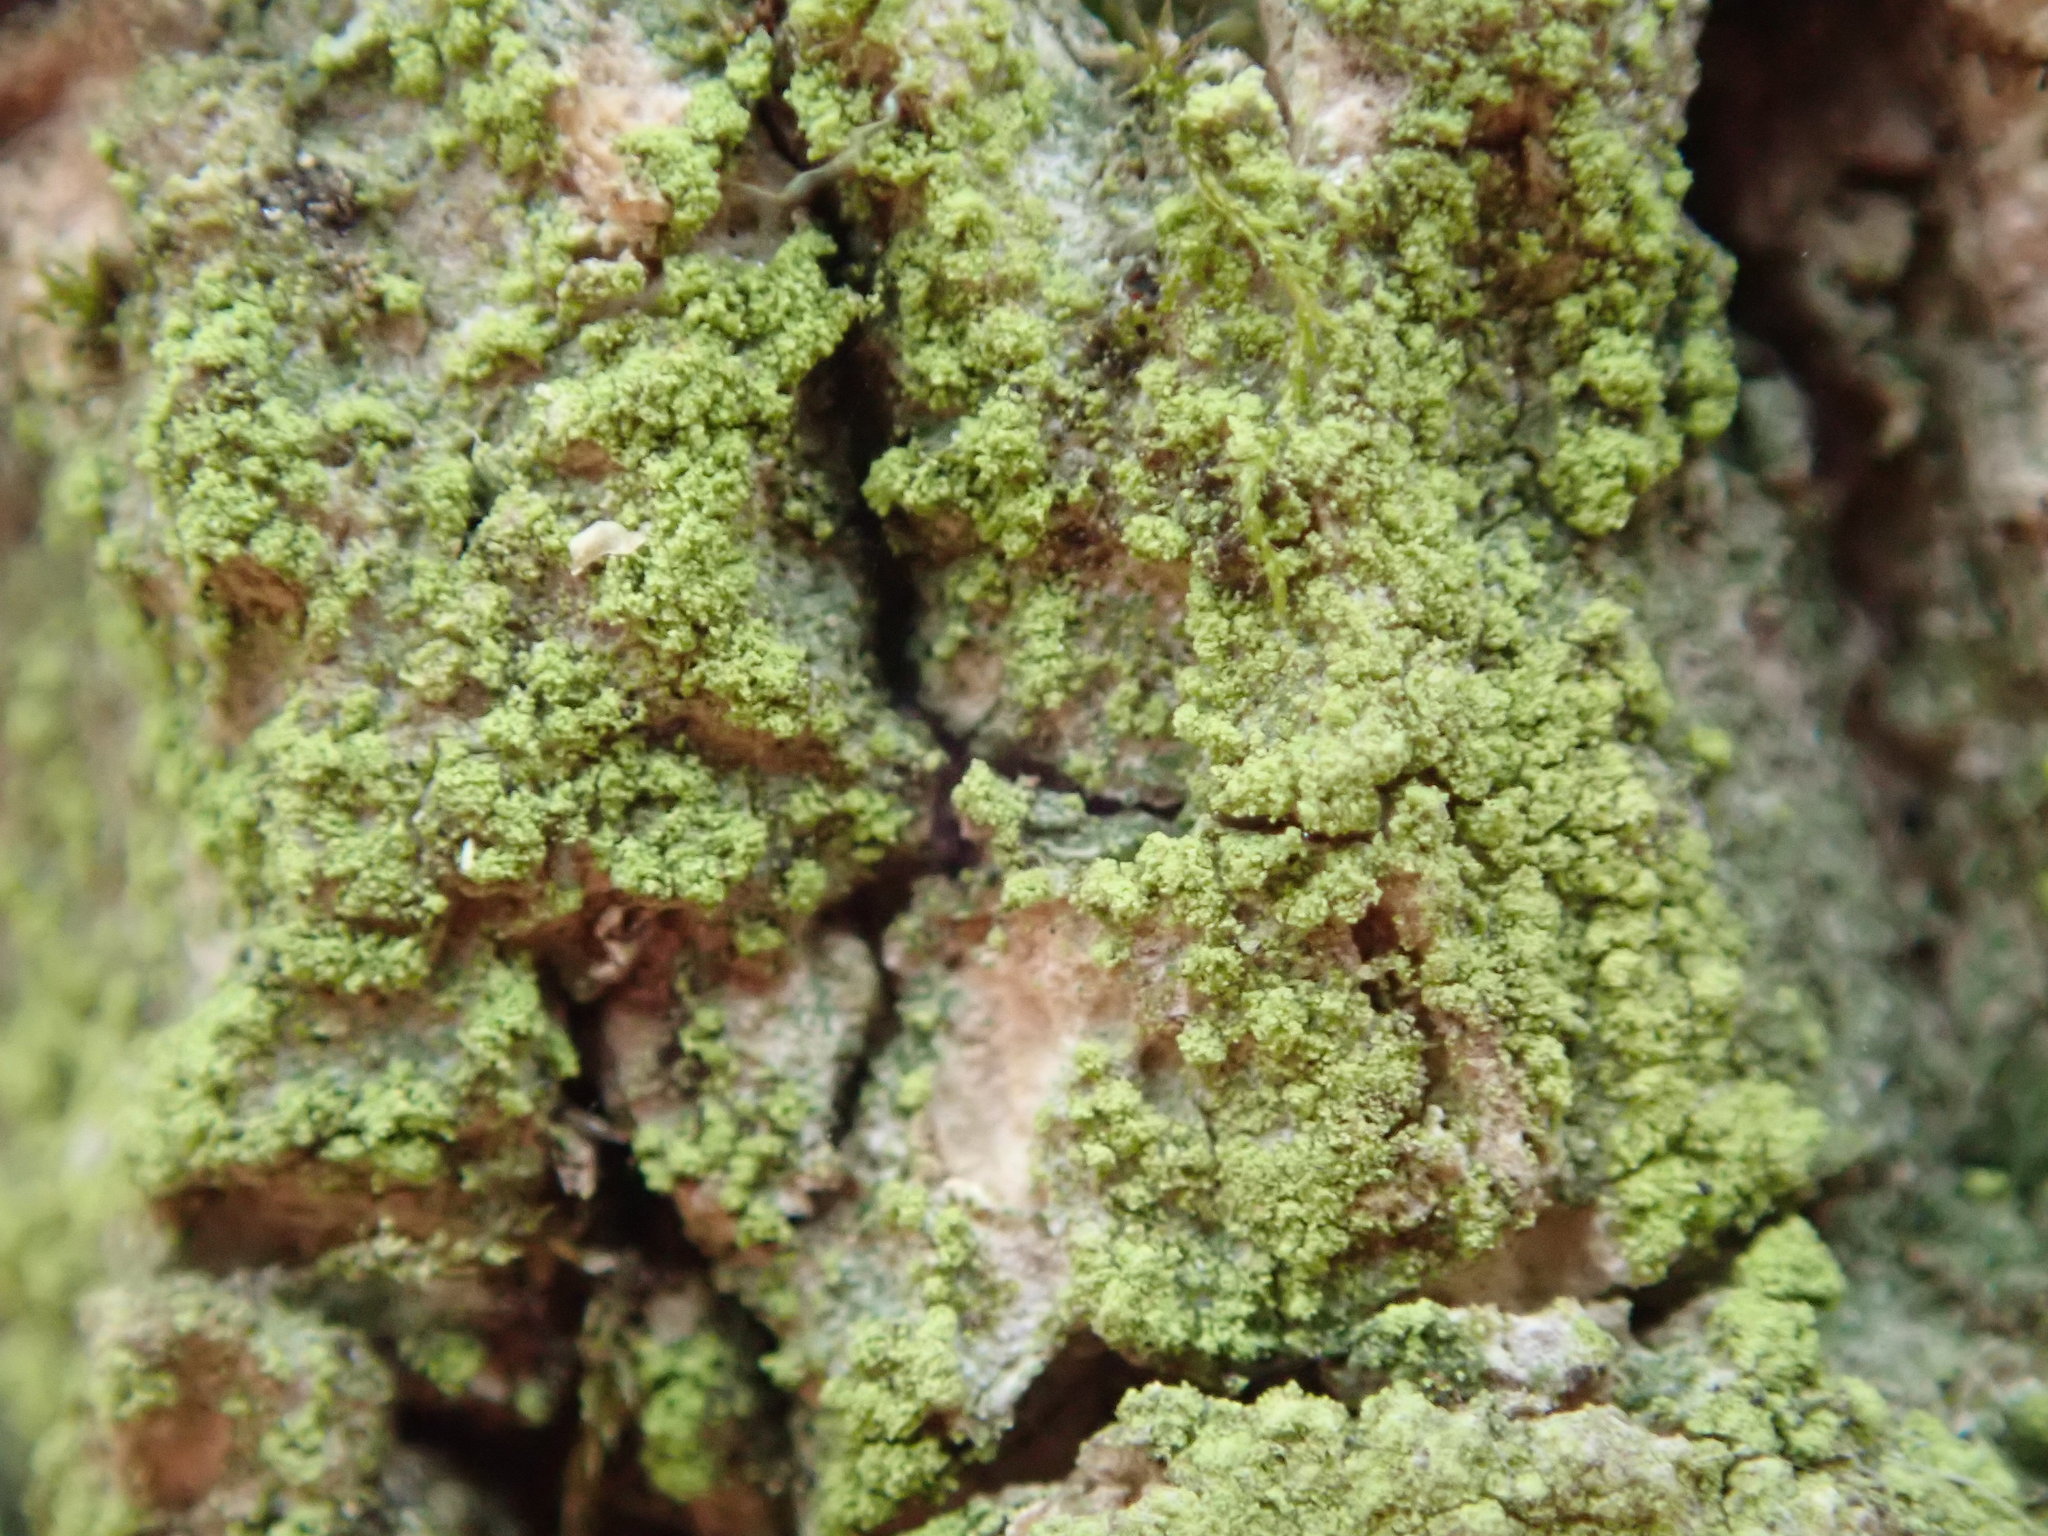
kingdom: Fungi
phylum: Ascomycota
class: Lecanoromycetes
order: Lecanorales
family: Ramalinaceae
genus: Biatora
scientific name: Biatora printzenii
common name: Printzen's dotted lichen
